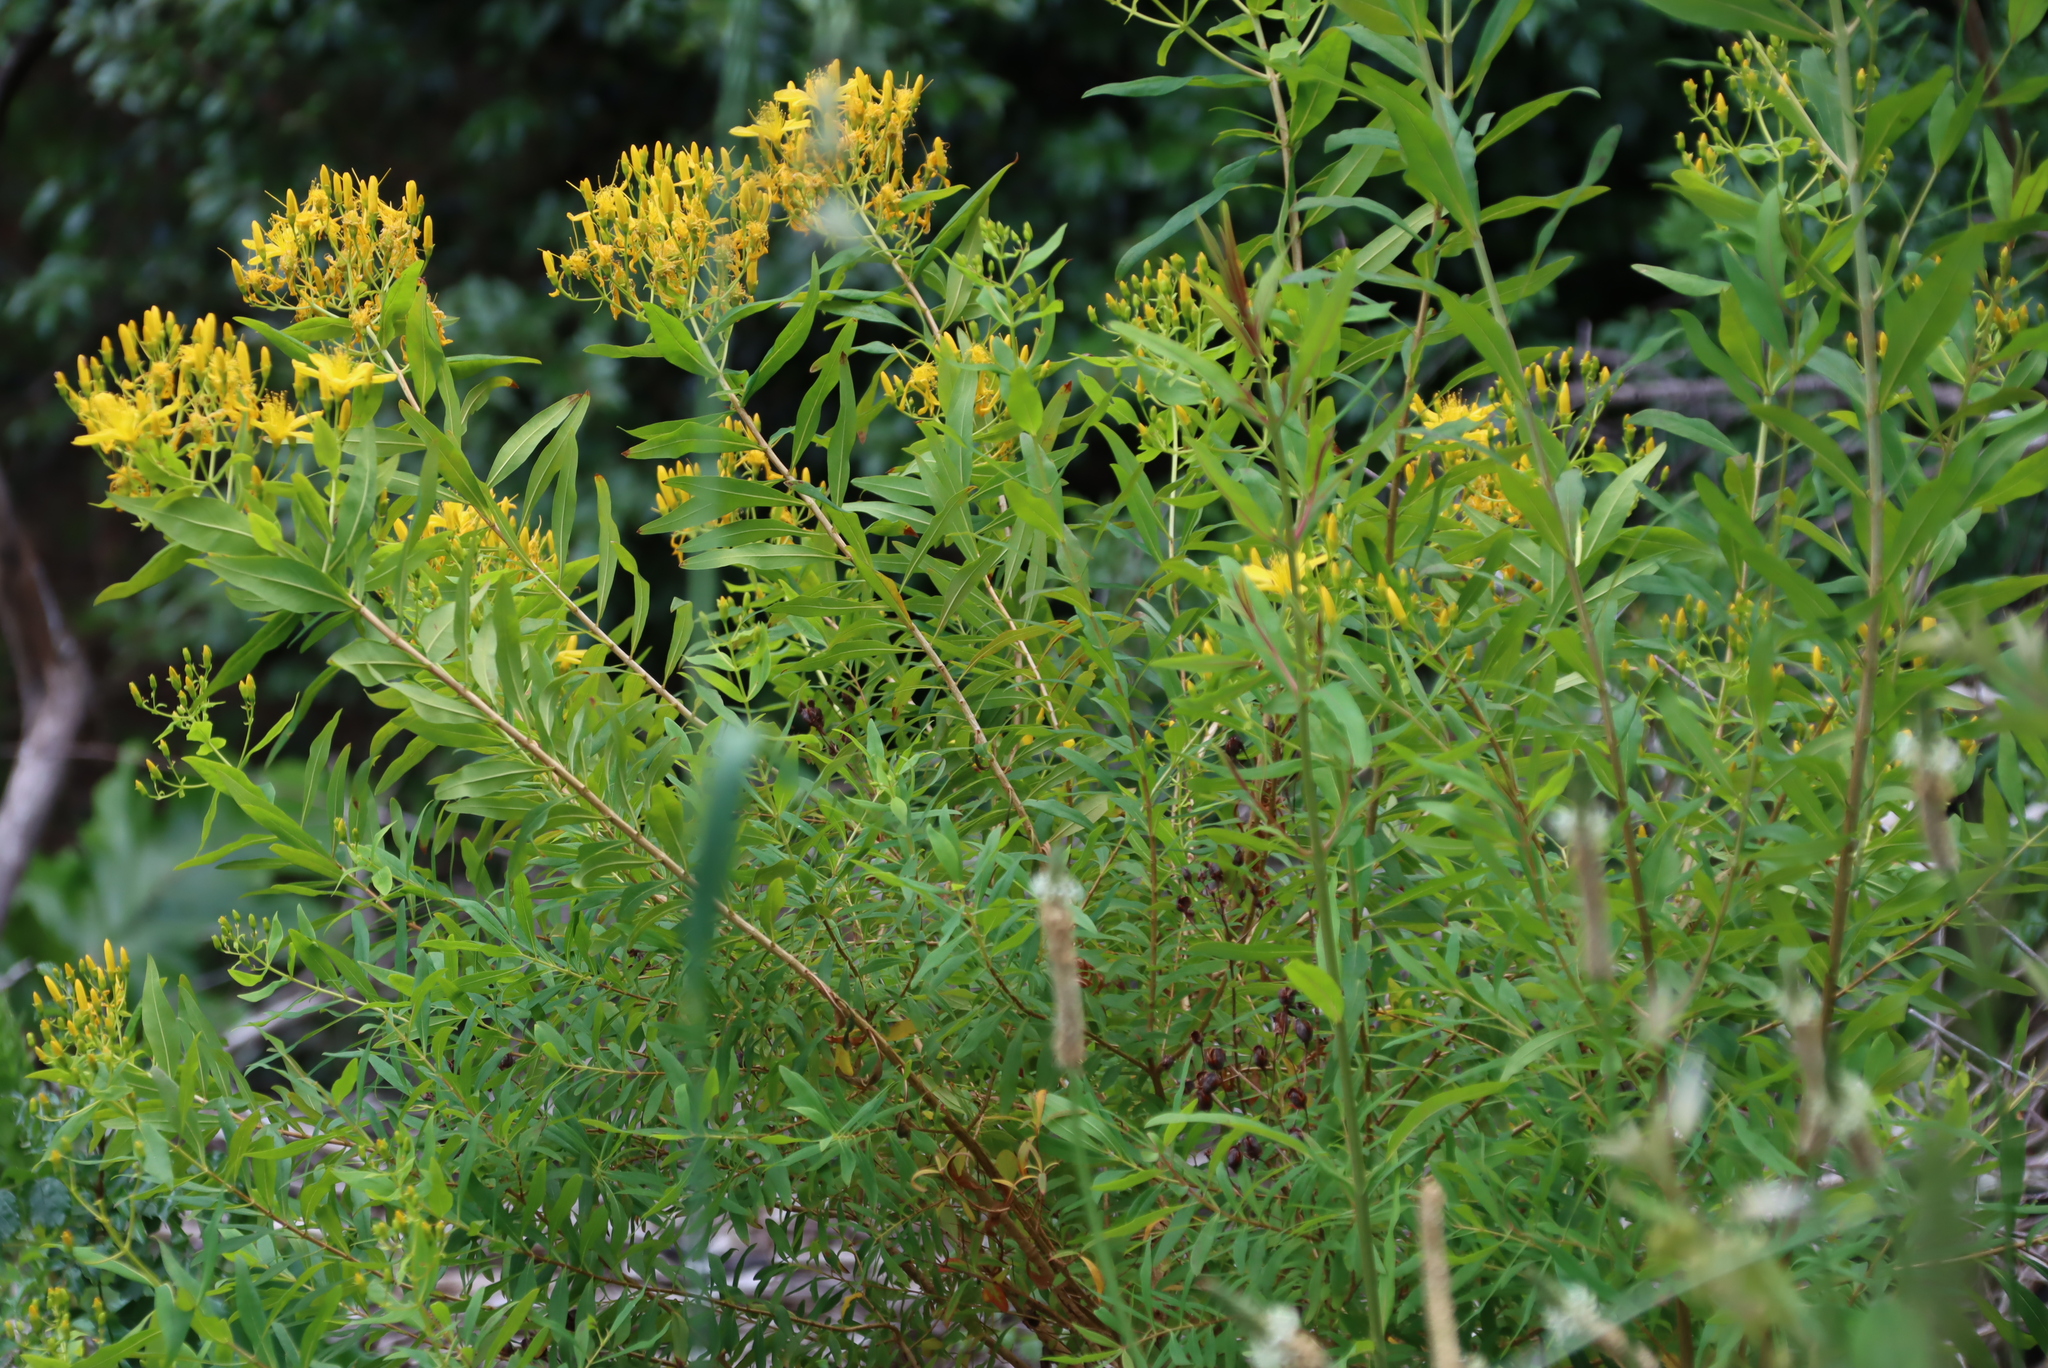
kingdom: Plantae
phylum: Tracheophyta
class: Magnoliopsida
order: Malpighiales
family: Hypericaceae
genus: Hypericum
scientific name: Hypericum canariense
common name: Canary island st. johnswort
